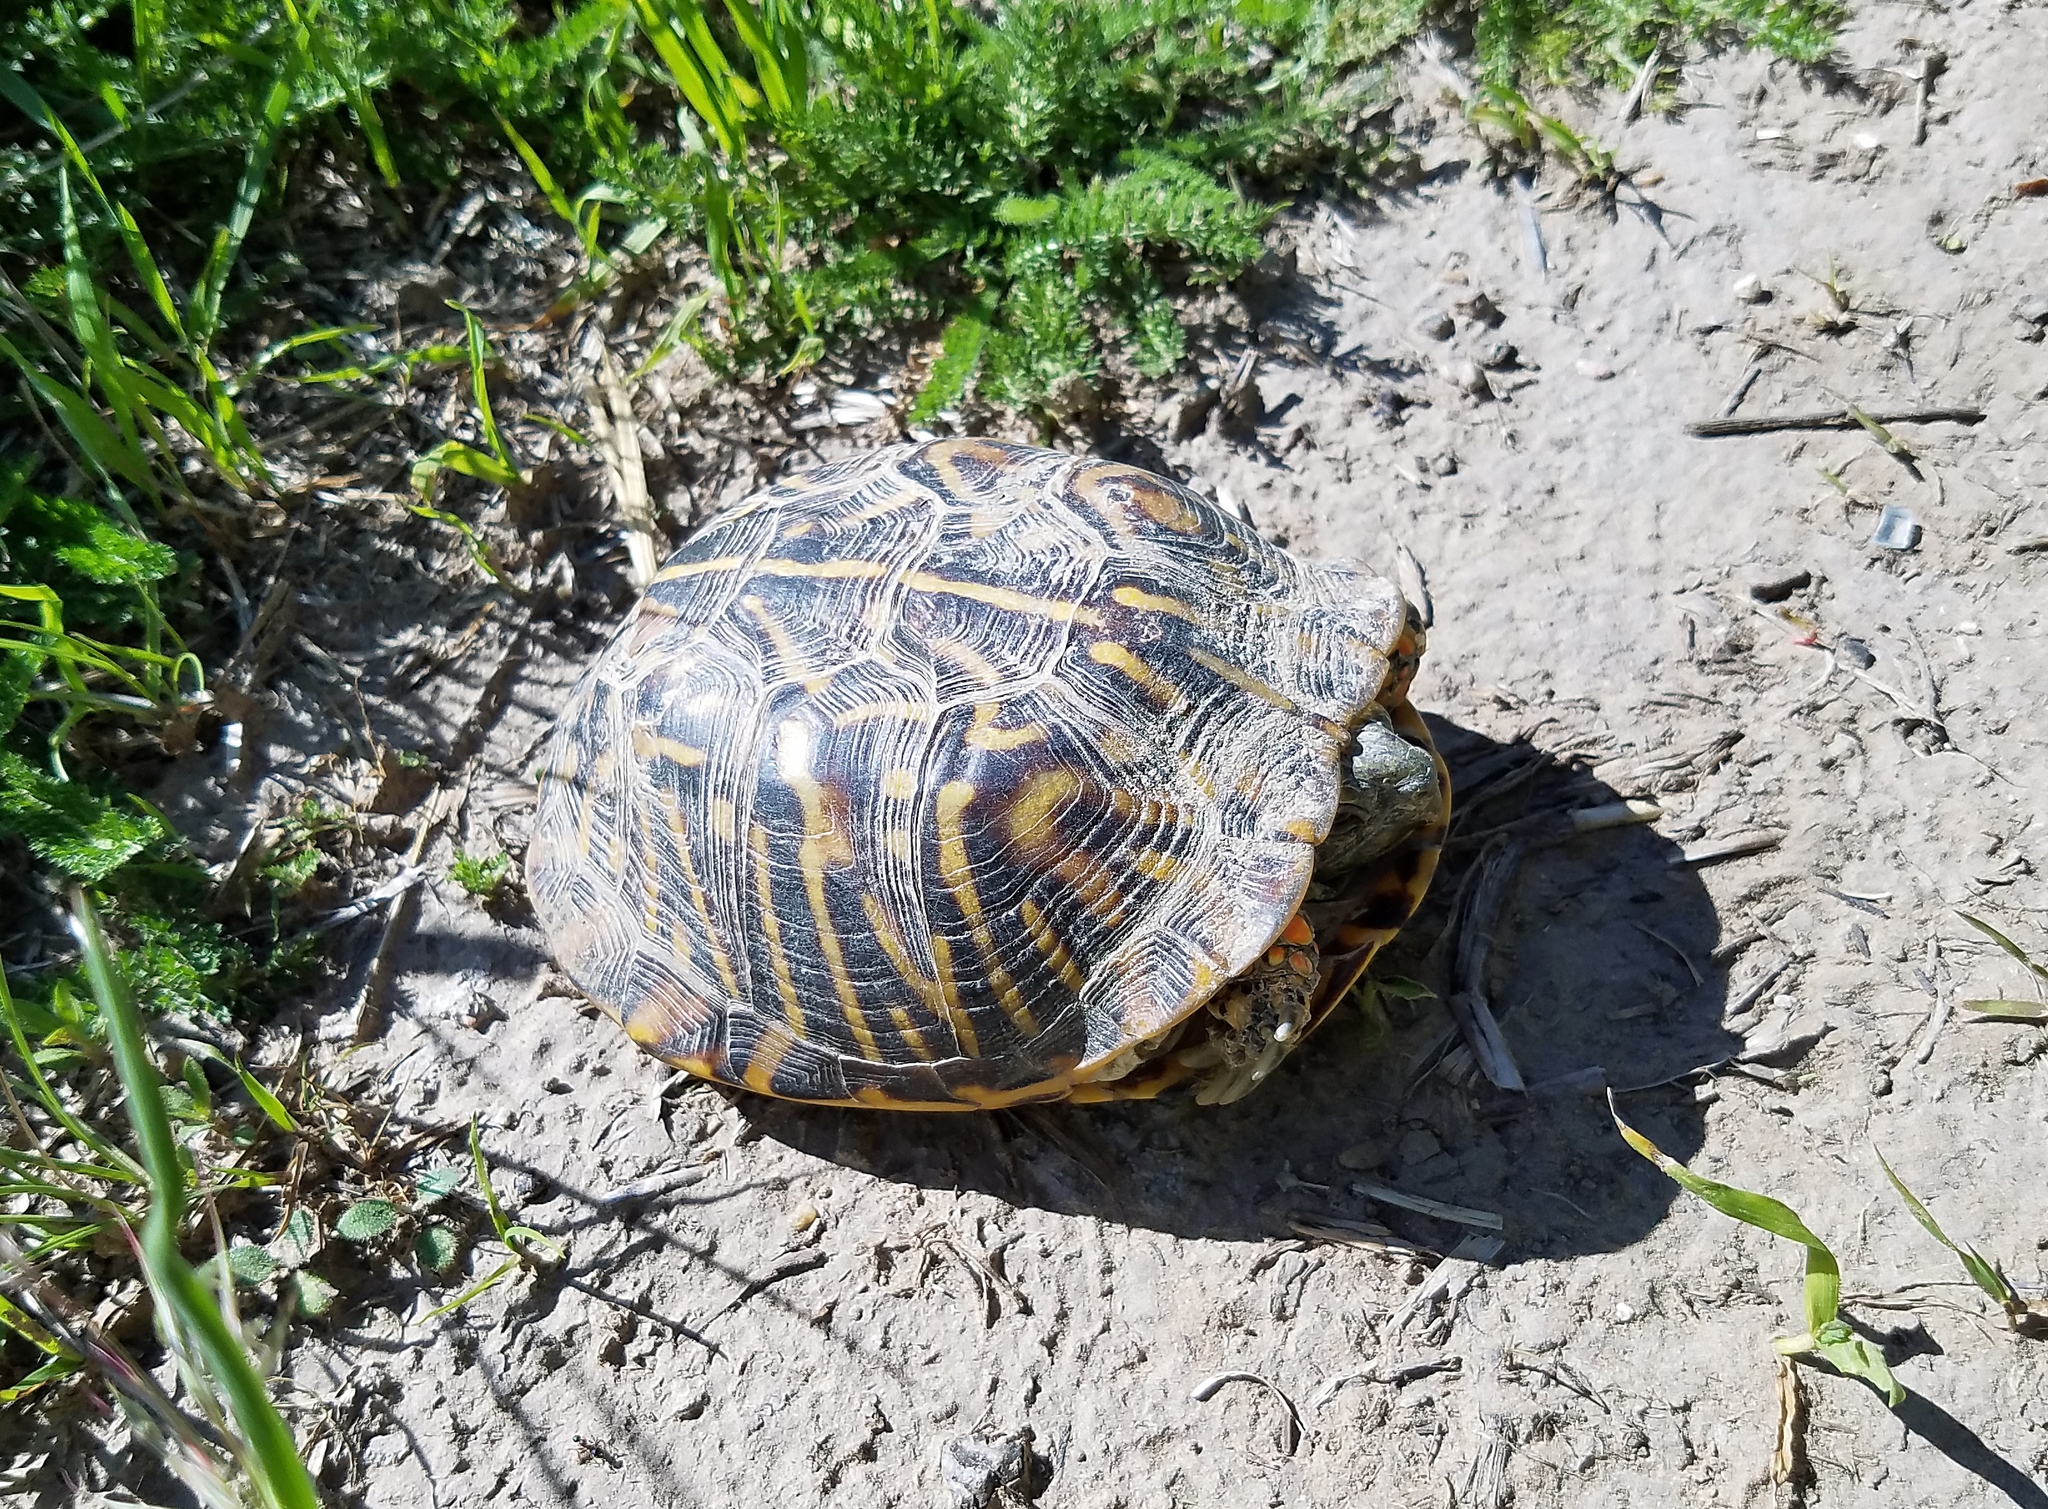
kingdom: Animalia
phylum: Chordata
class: Testudines
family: Emydidae
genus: Terrapene
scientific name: Terrapene ornata
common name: Western box turtle
